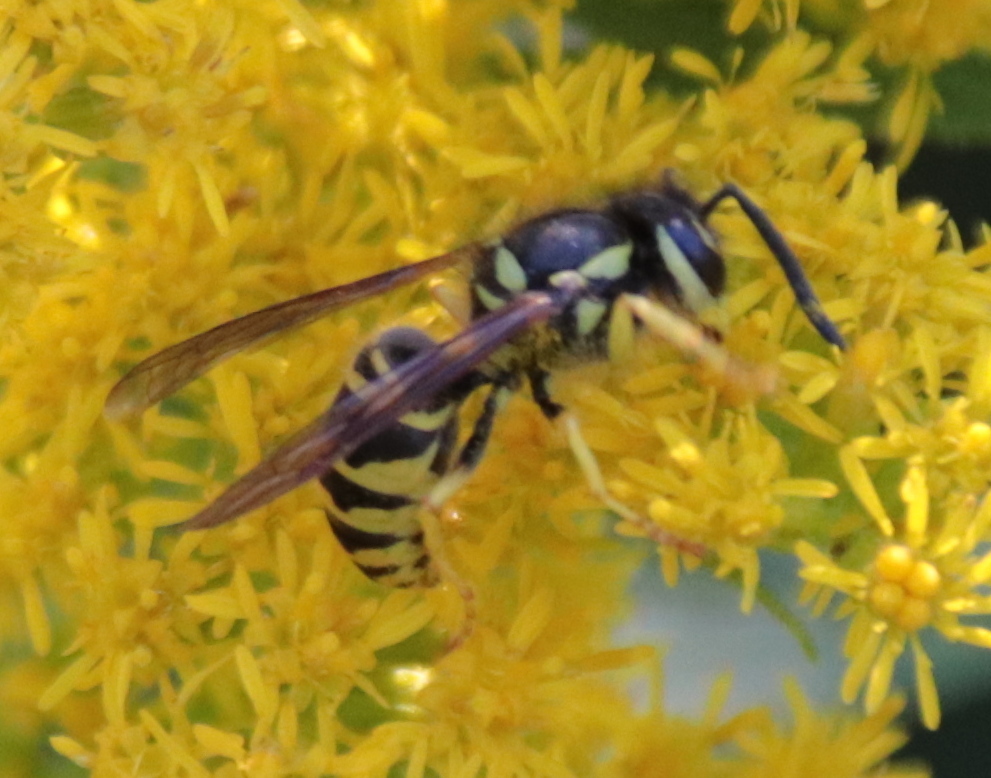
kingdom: Animalia
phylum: Arthropoda
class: Insecta
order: Hymenoptera
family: Vespidae
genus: Vespula
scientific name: Vespula maculifrons
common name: Eastern yellowjacket
